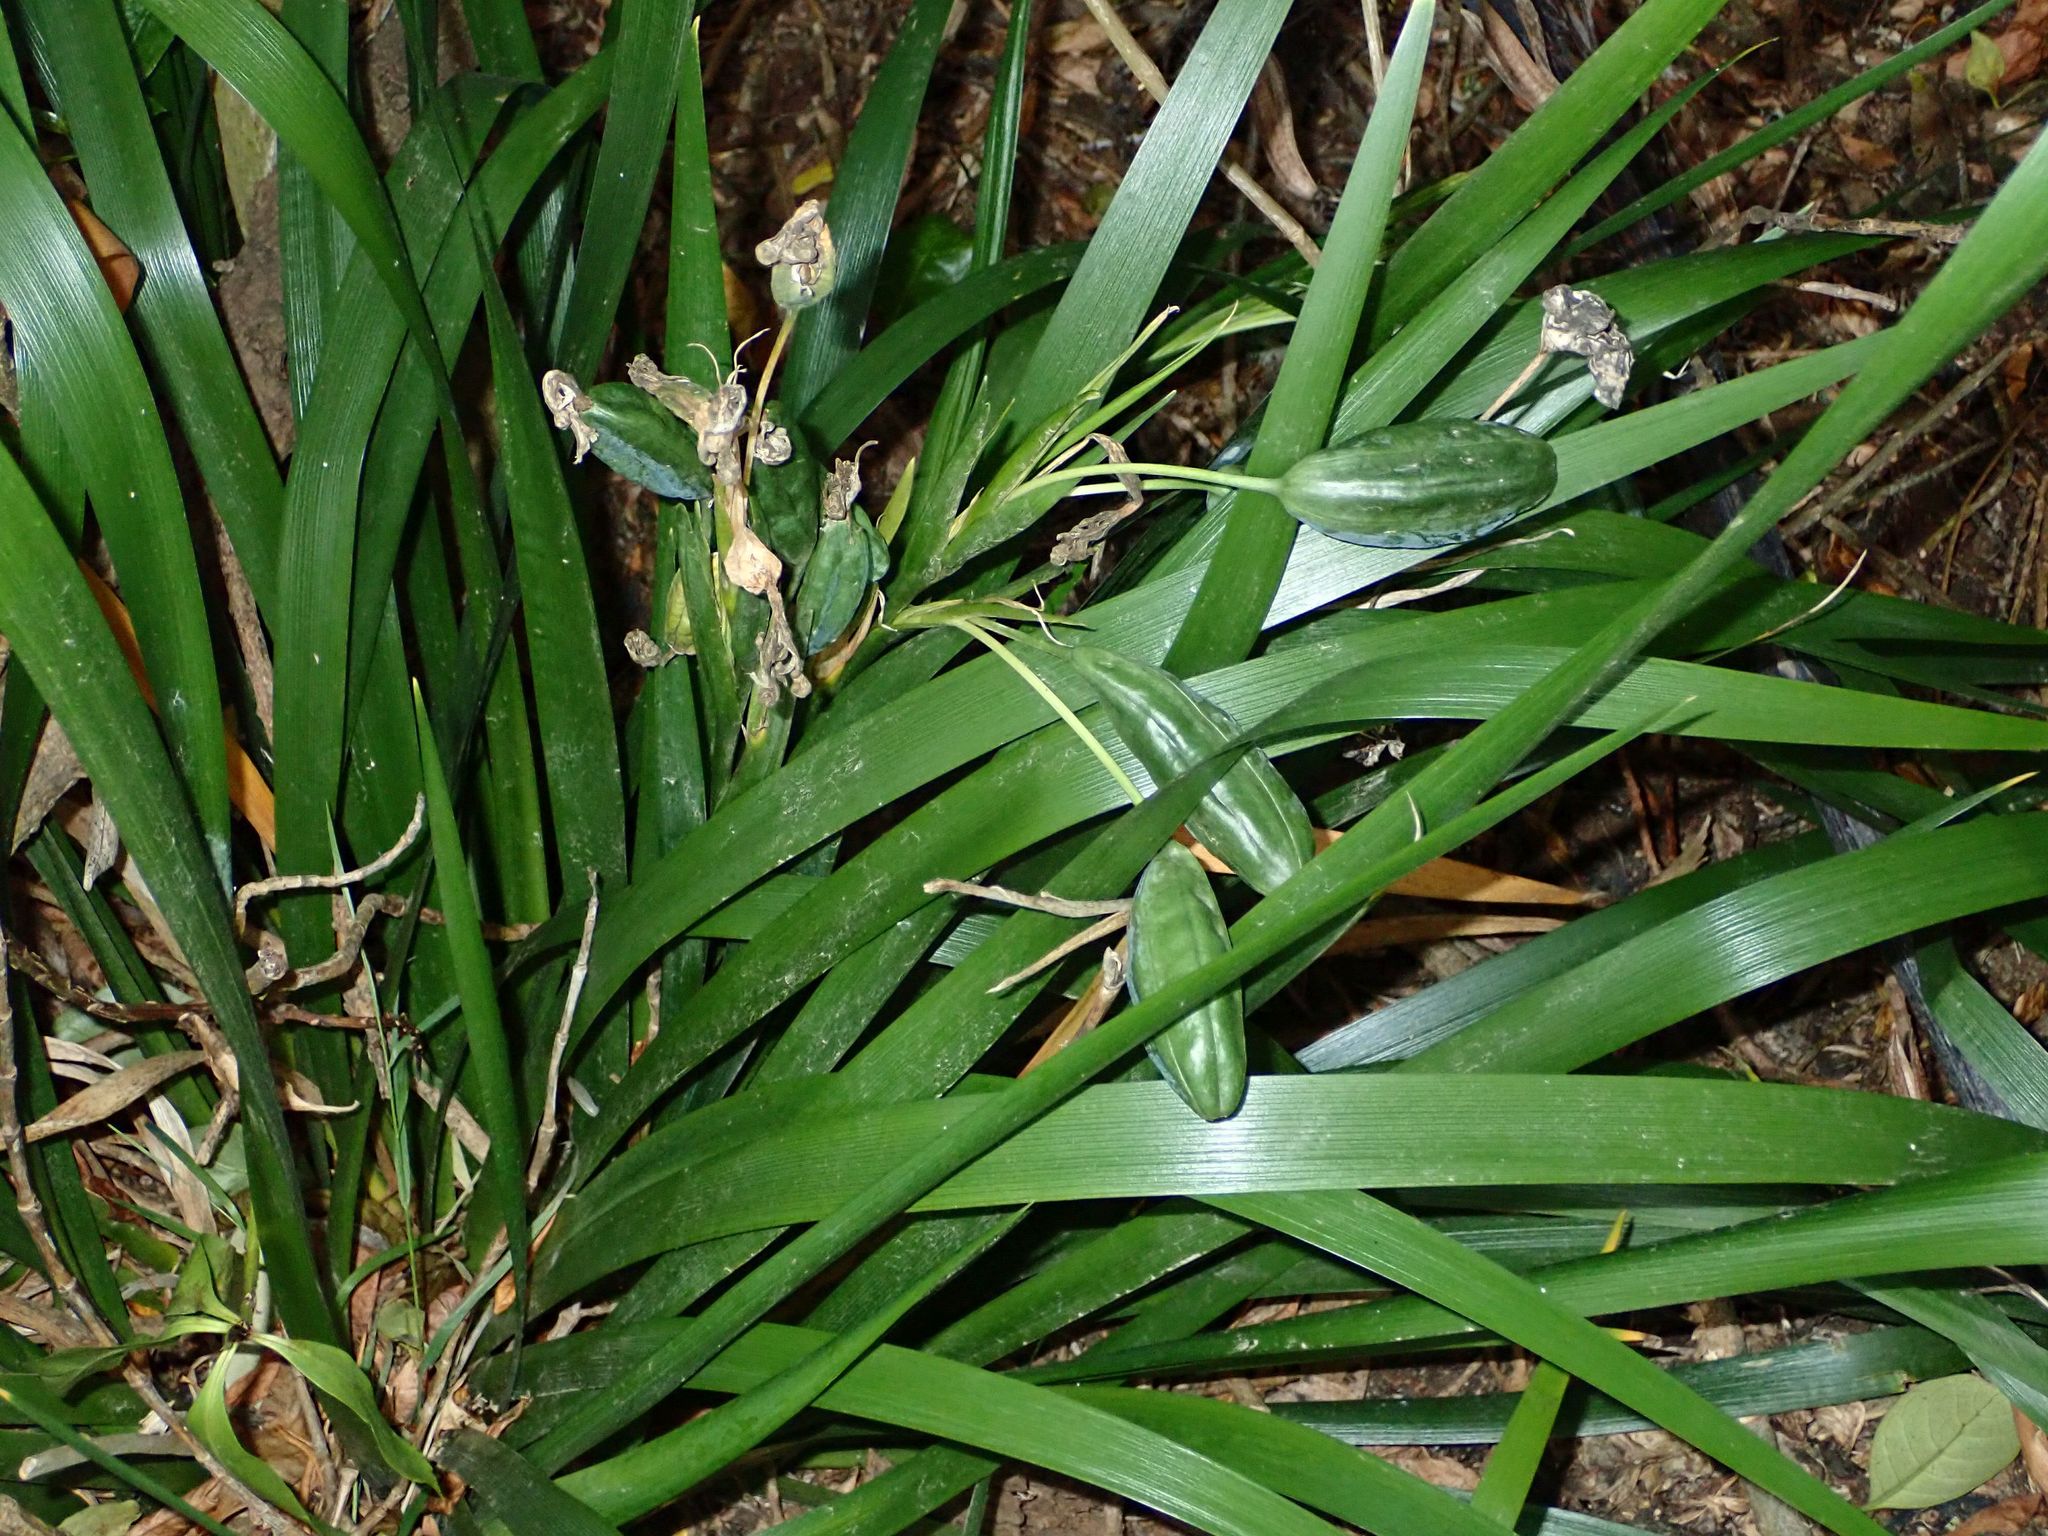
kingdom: Plantae
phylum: Tracheophyta
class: Liliopsida
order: Asparagales
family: Iridaceae
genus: Iris
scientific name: Iris foetidissima
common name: Stinking iris
